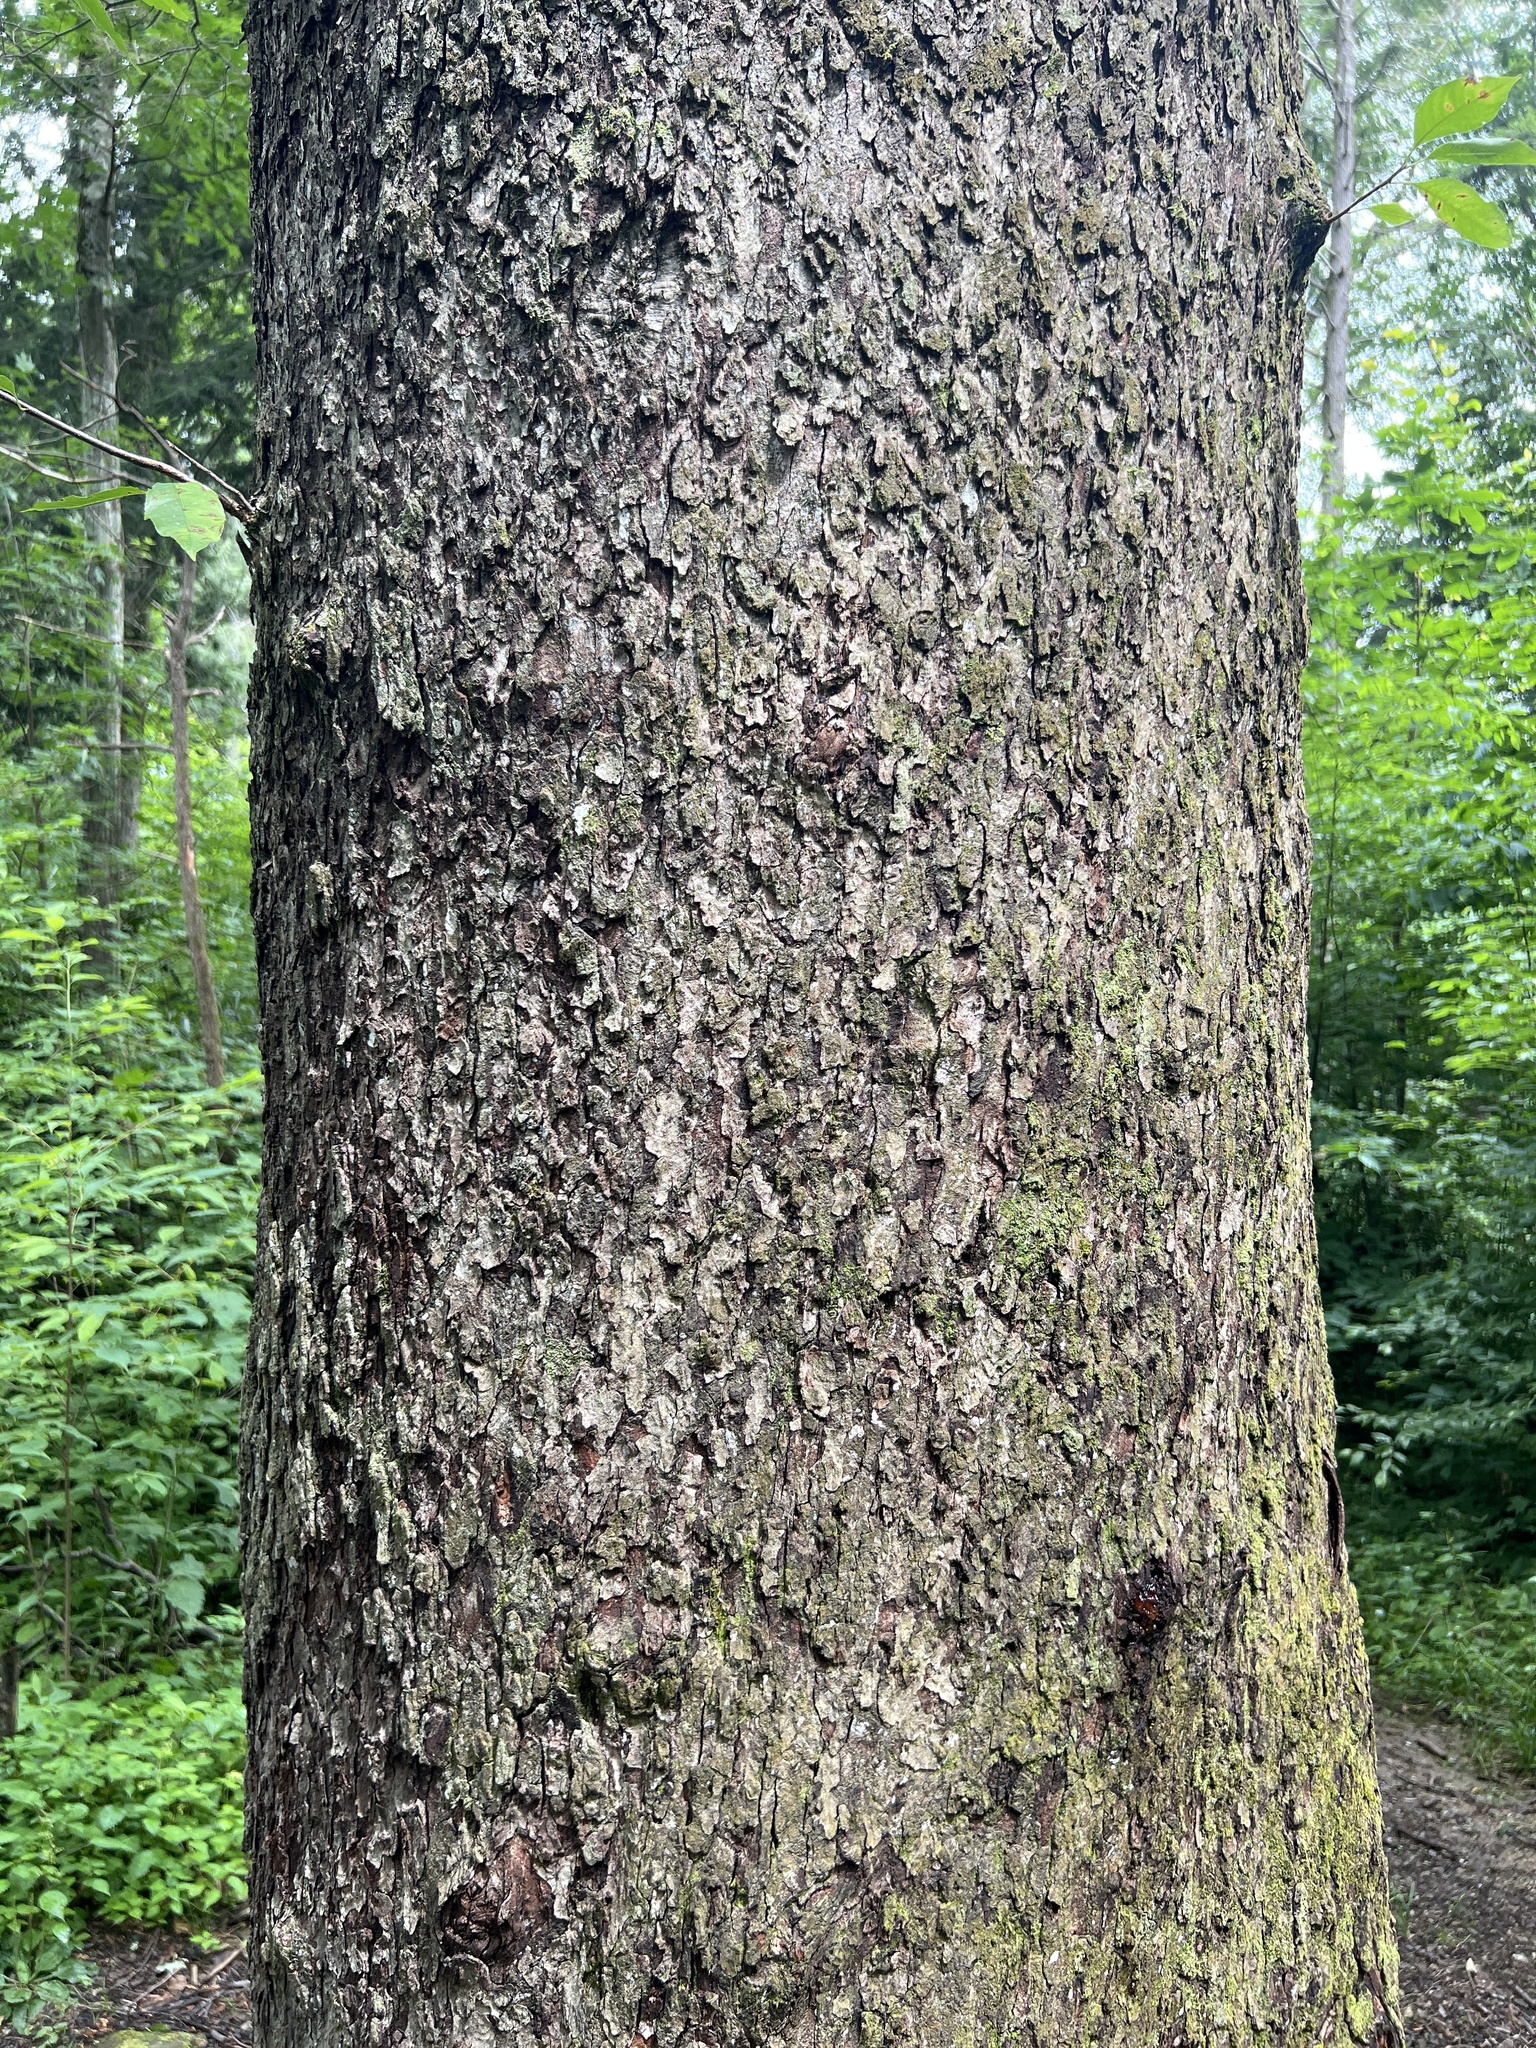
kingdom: Plantae
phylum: Tracheophyta
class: Magnoliopsida
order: Rosales
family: Rosaceae
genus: Prunus
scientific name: Prunus serotina
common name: Black cherry
